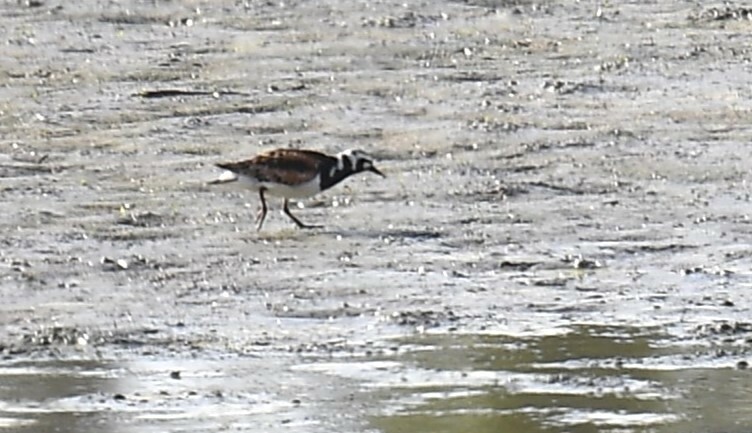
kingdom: Animalia
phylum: Chordata
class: Aves
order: Charadriiformes
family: Scolopacidae
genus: Arenaria
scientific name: Arenaria interpres
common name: Ruddy turnstone
